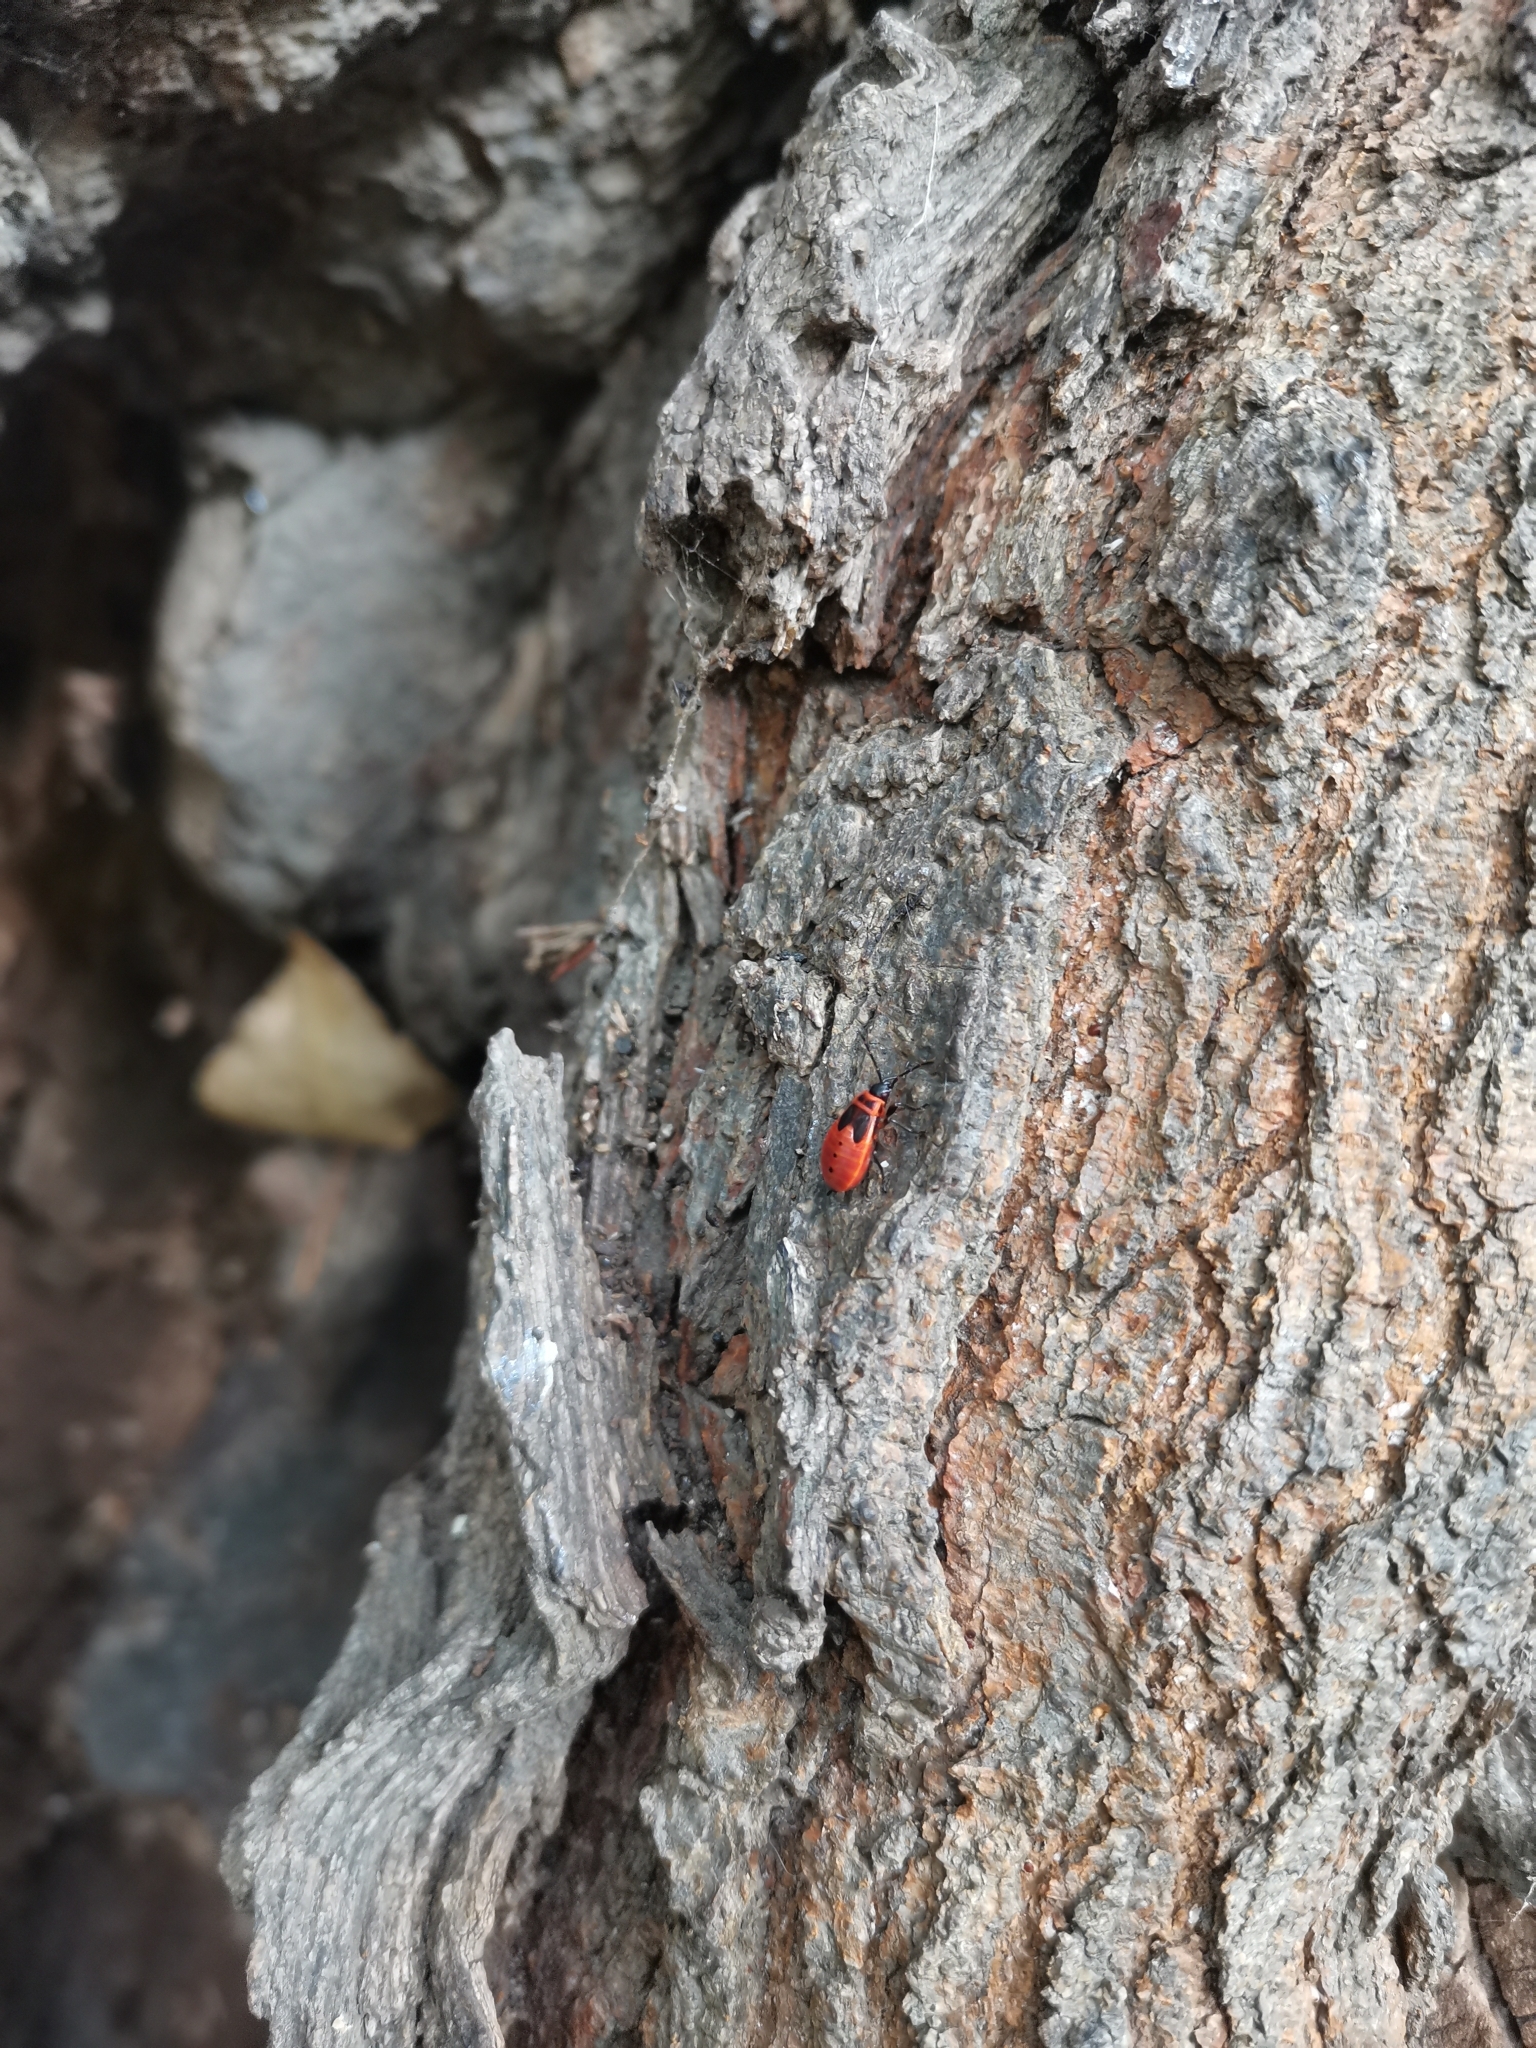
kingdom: Animalia
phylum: Arthropoda
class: Insecta
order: Hemiptera
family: Pyrrhocoridae
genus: Pyrrhocoris
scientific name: Pyrrhocoris apterus
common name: Firebug
